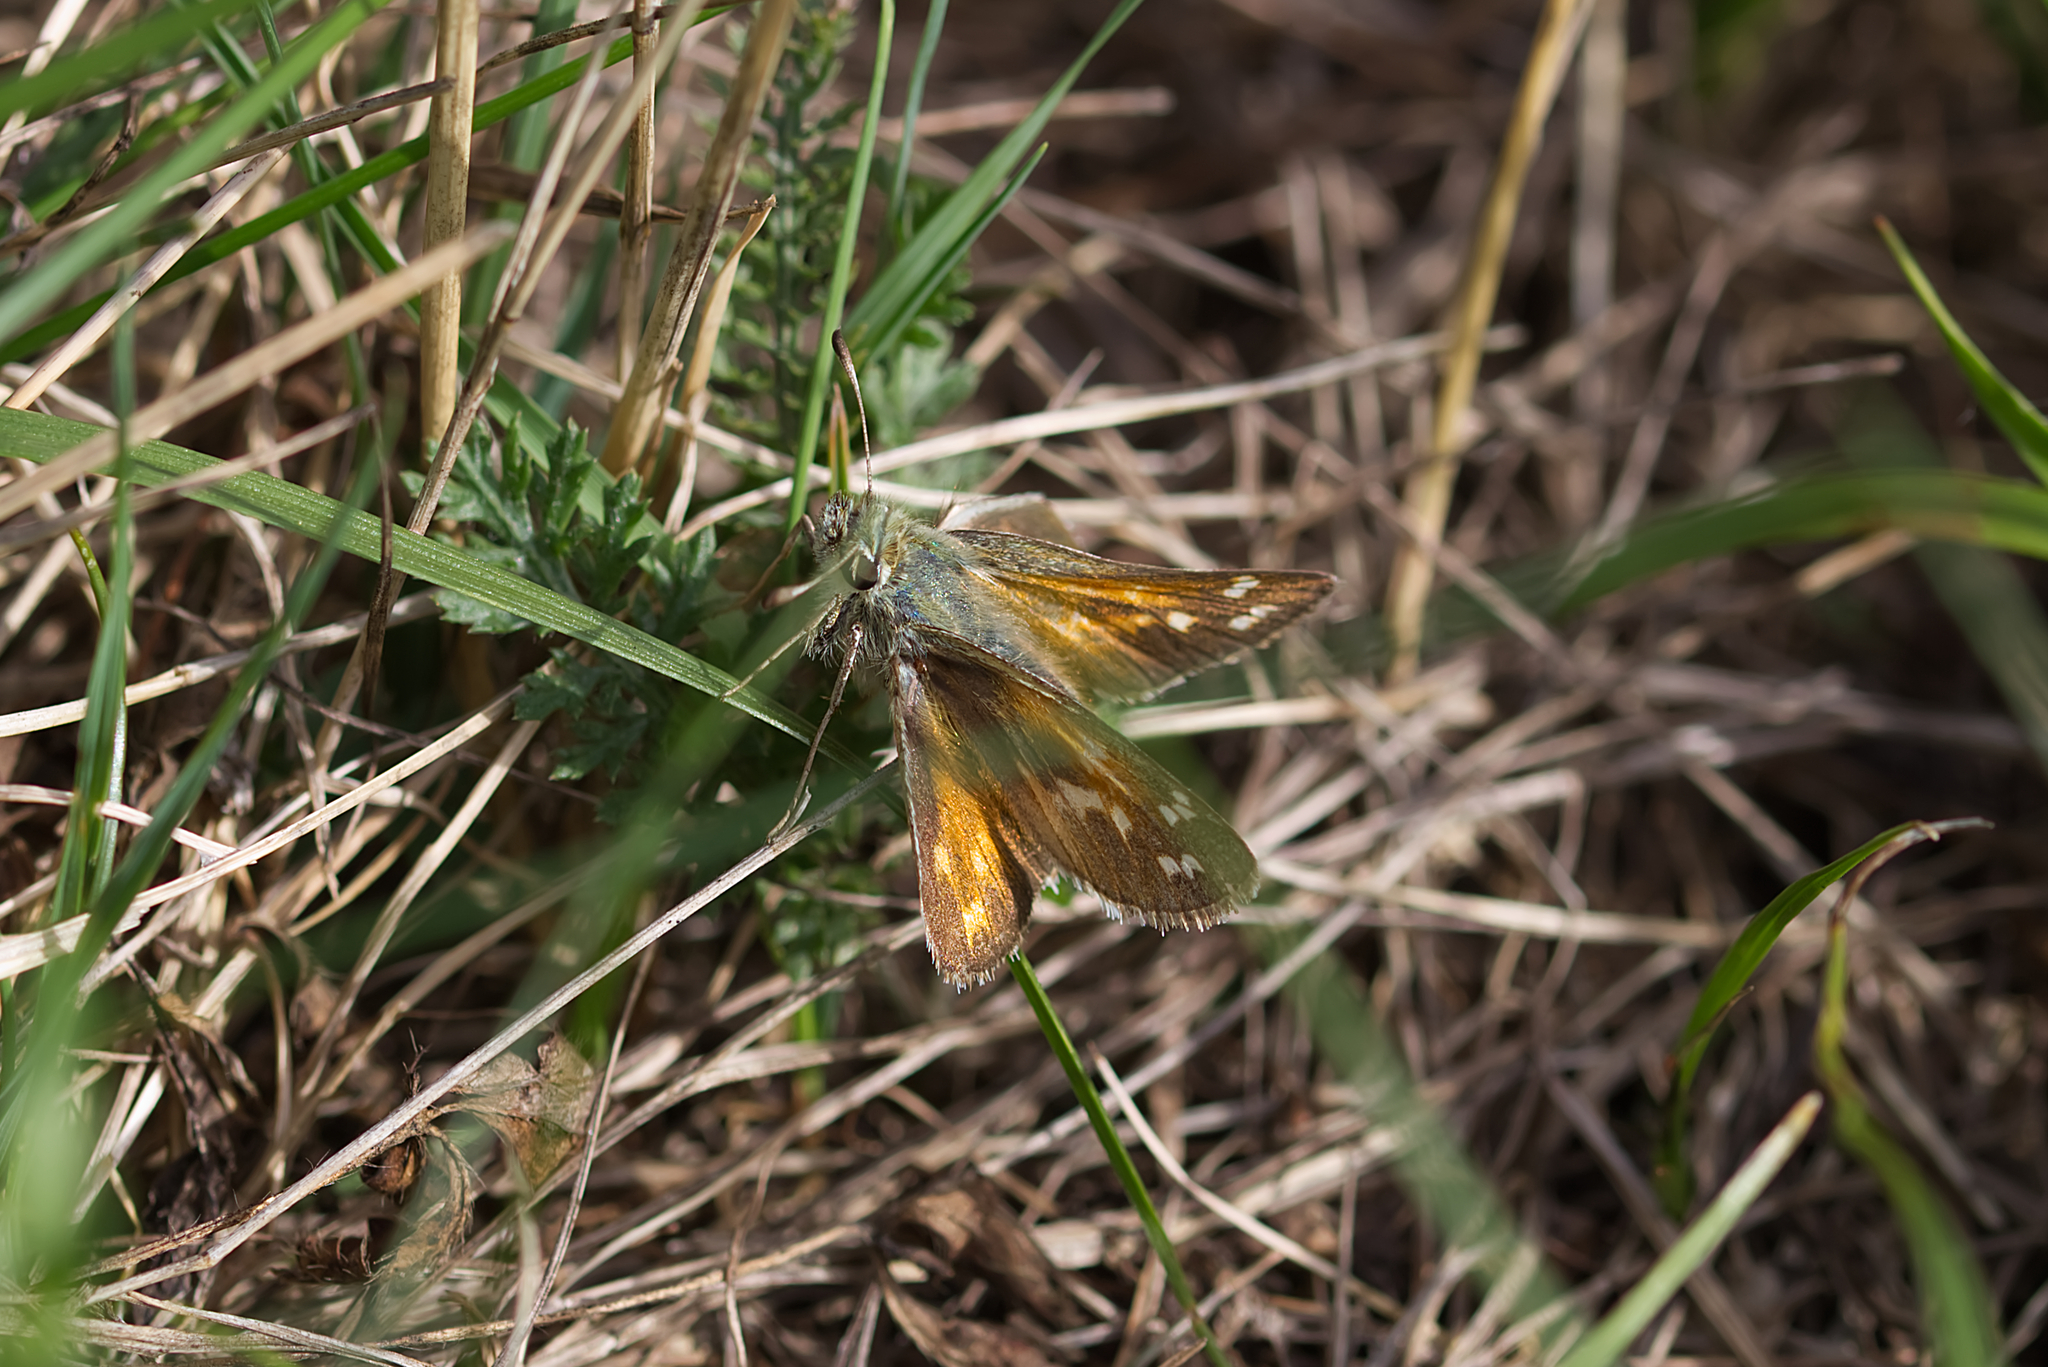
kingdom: Animalia
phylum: Arthropoda
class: Insecta
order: Lepidoptera
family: Hesperiidae
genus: Hesperia
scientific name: Hesperia comma
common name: Common branded skipper
